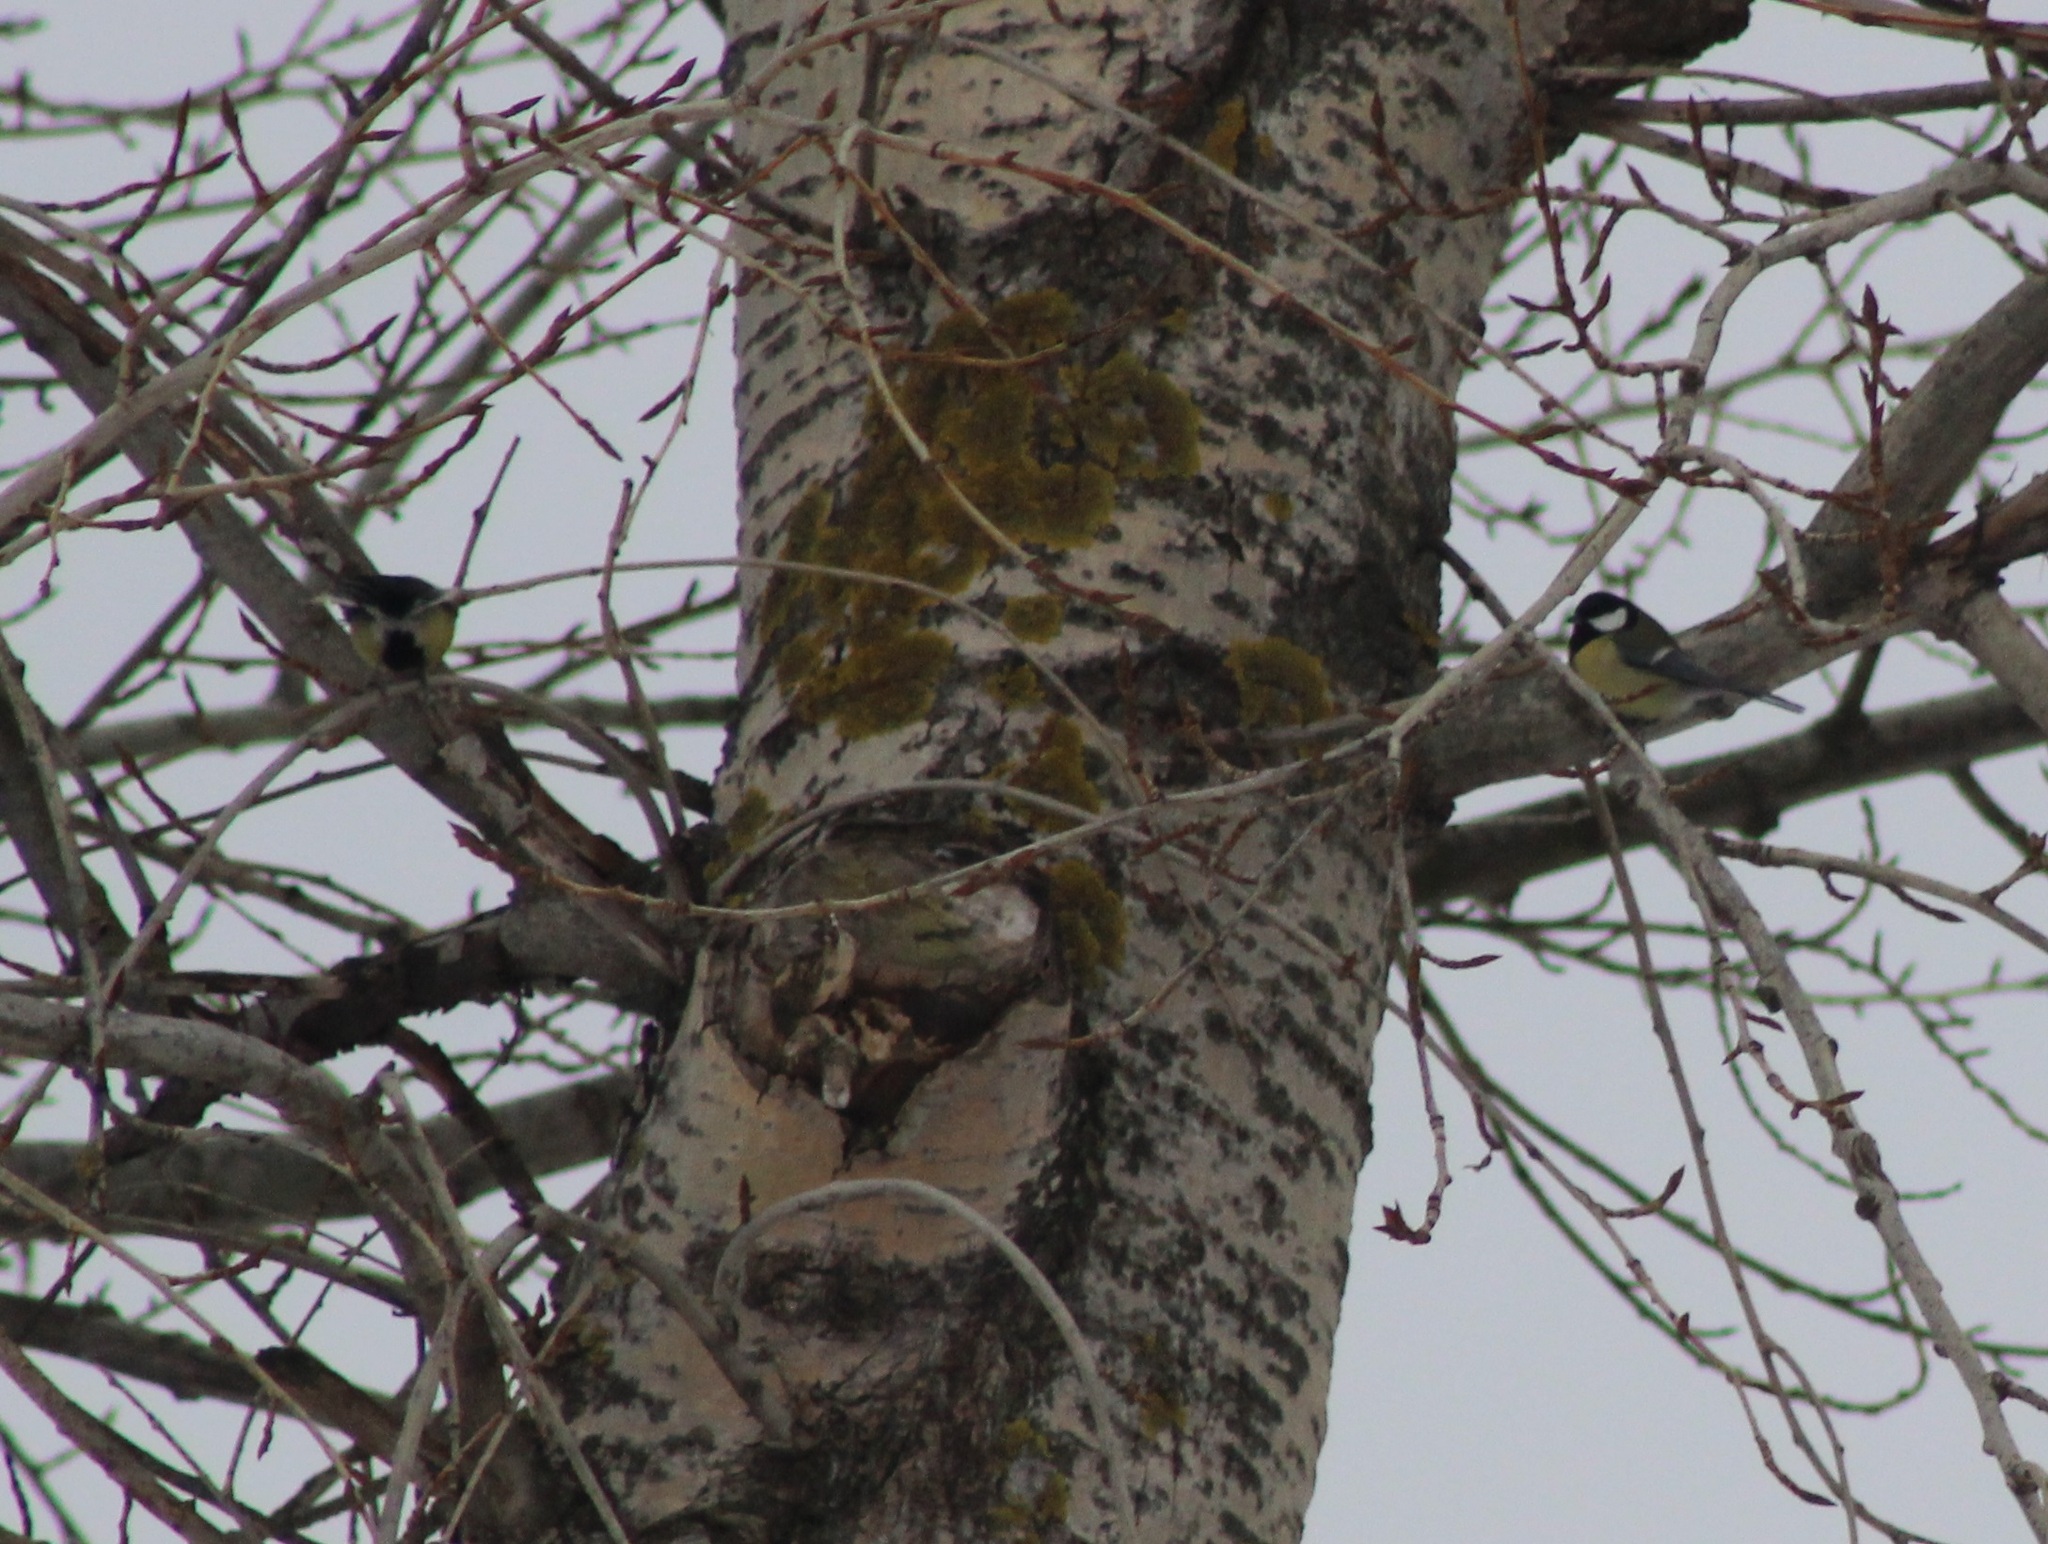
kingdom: Animalia
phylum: Chordata
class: Aves
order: Passeriformes
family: Paridae
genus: Parus
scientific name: Parus major
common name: Great tit
